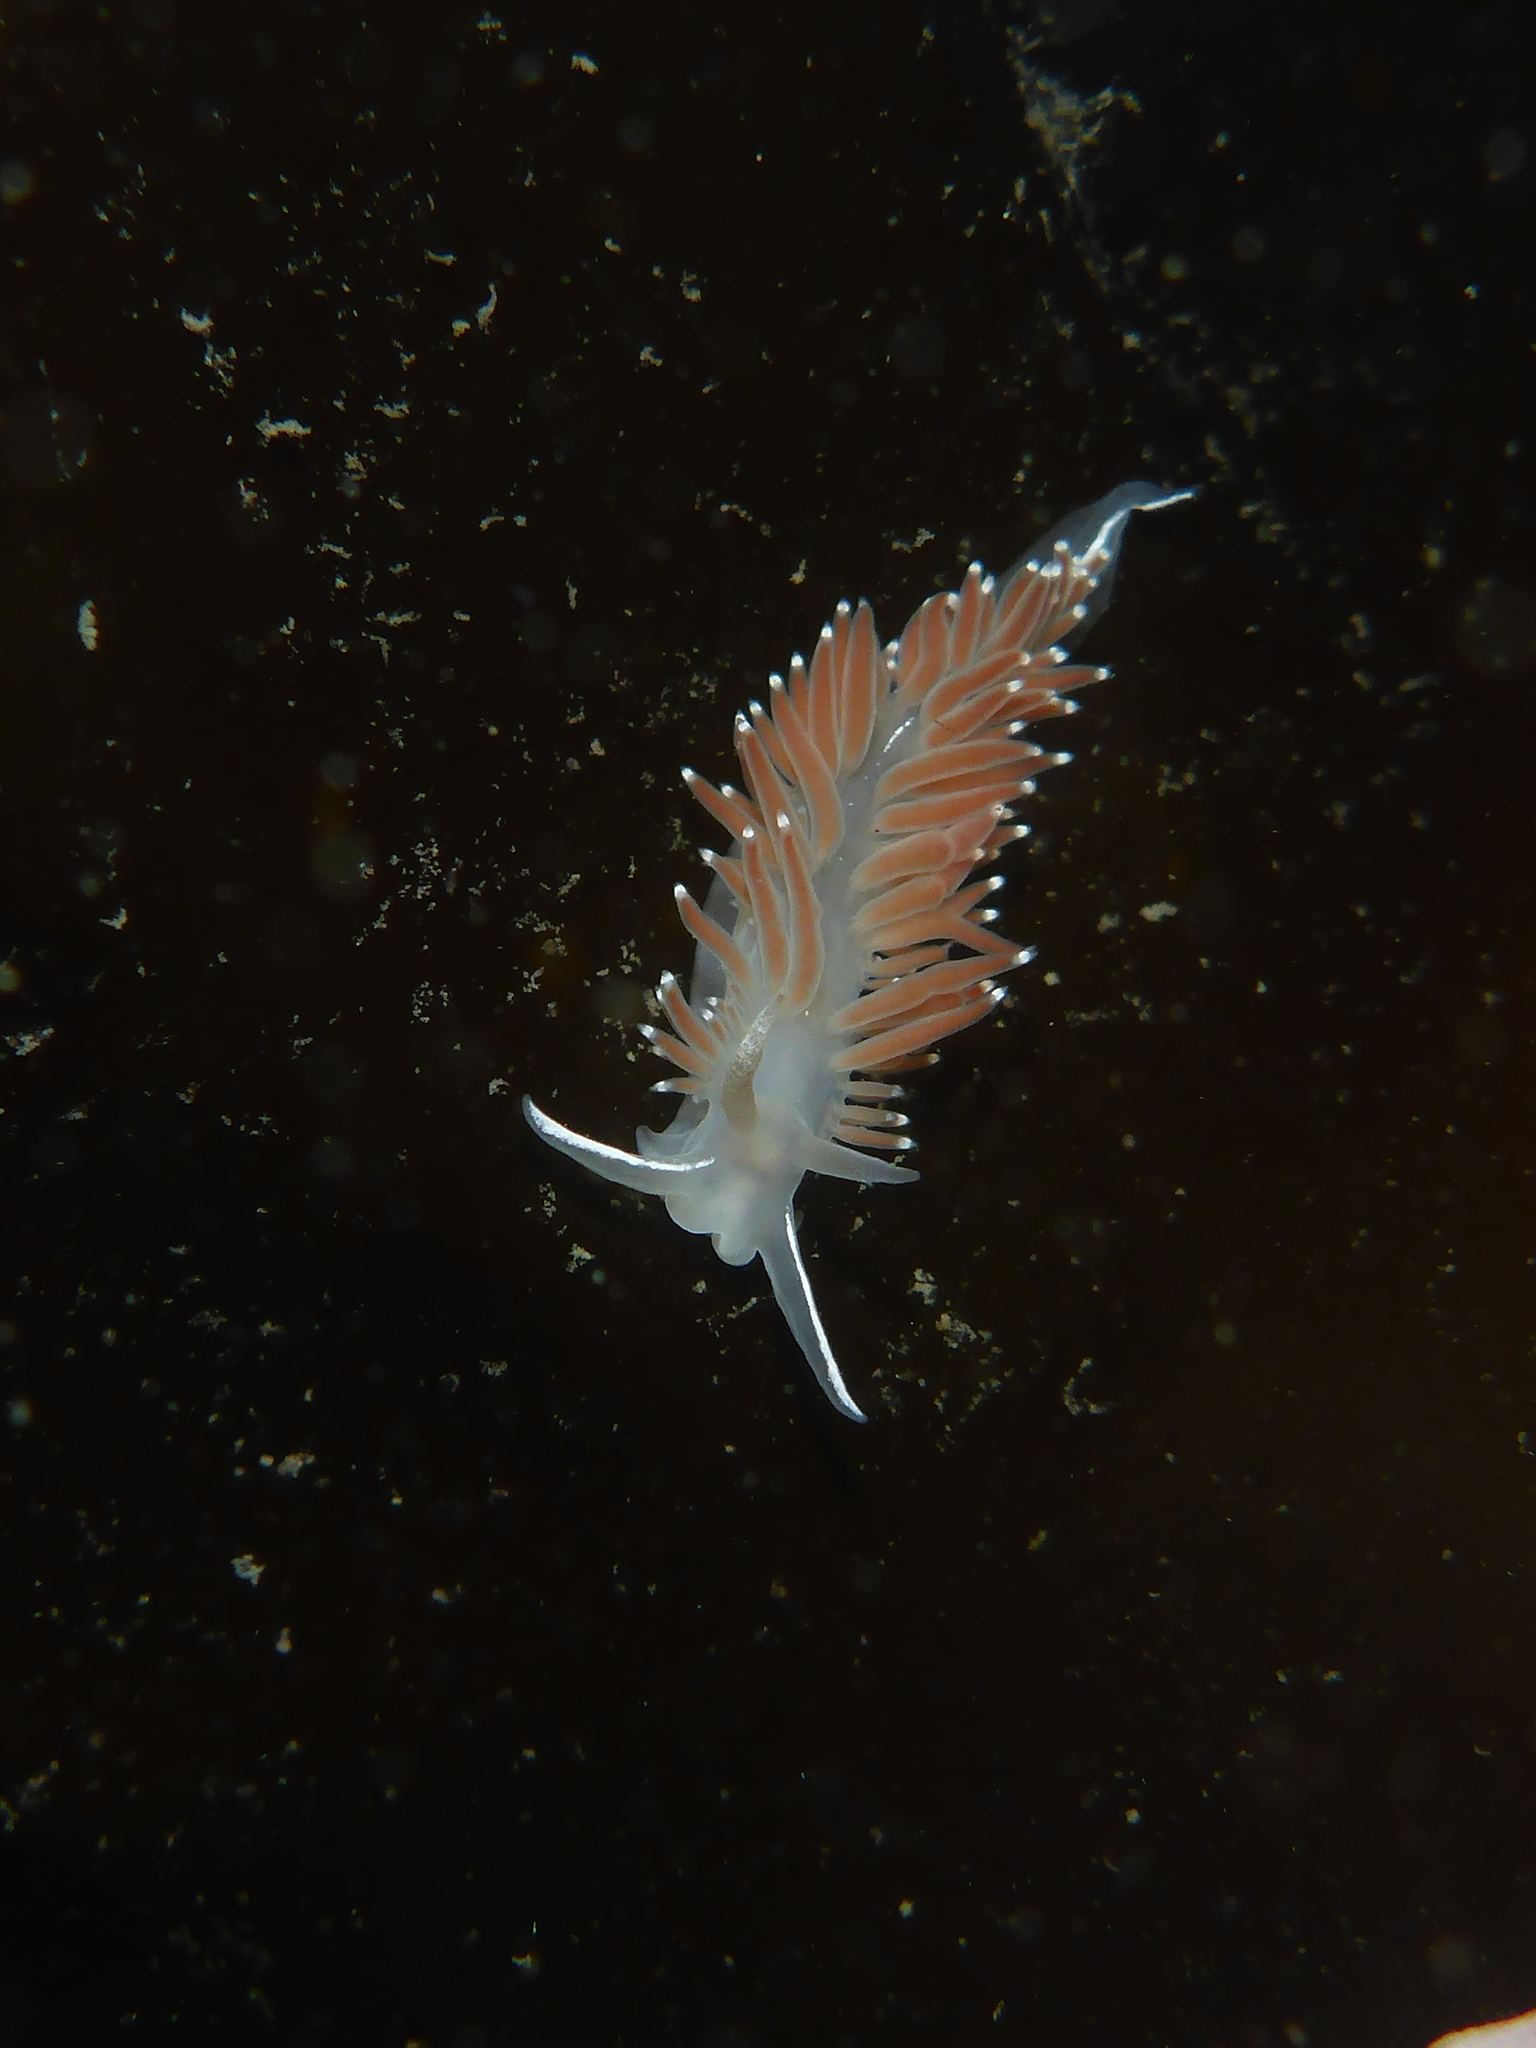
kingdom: Animalia
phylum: Mollusca
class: Gastropoda
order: Nudibranchia
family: Coryphellidae
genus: Coryphella
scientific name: Coryphella verrucosa
